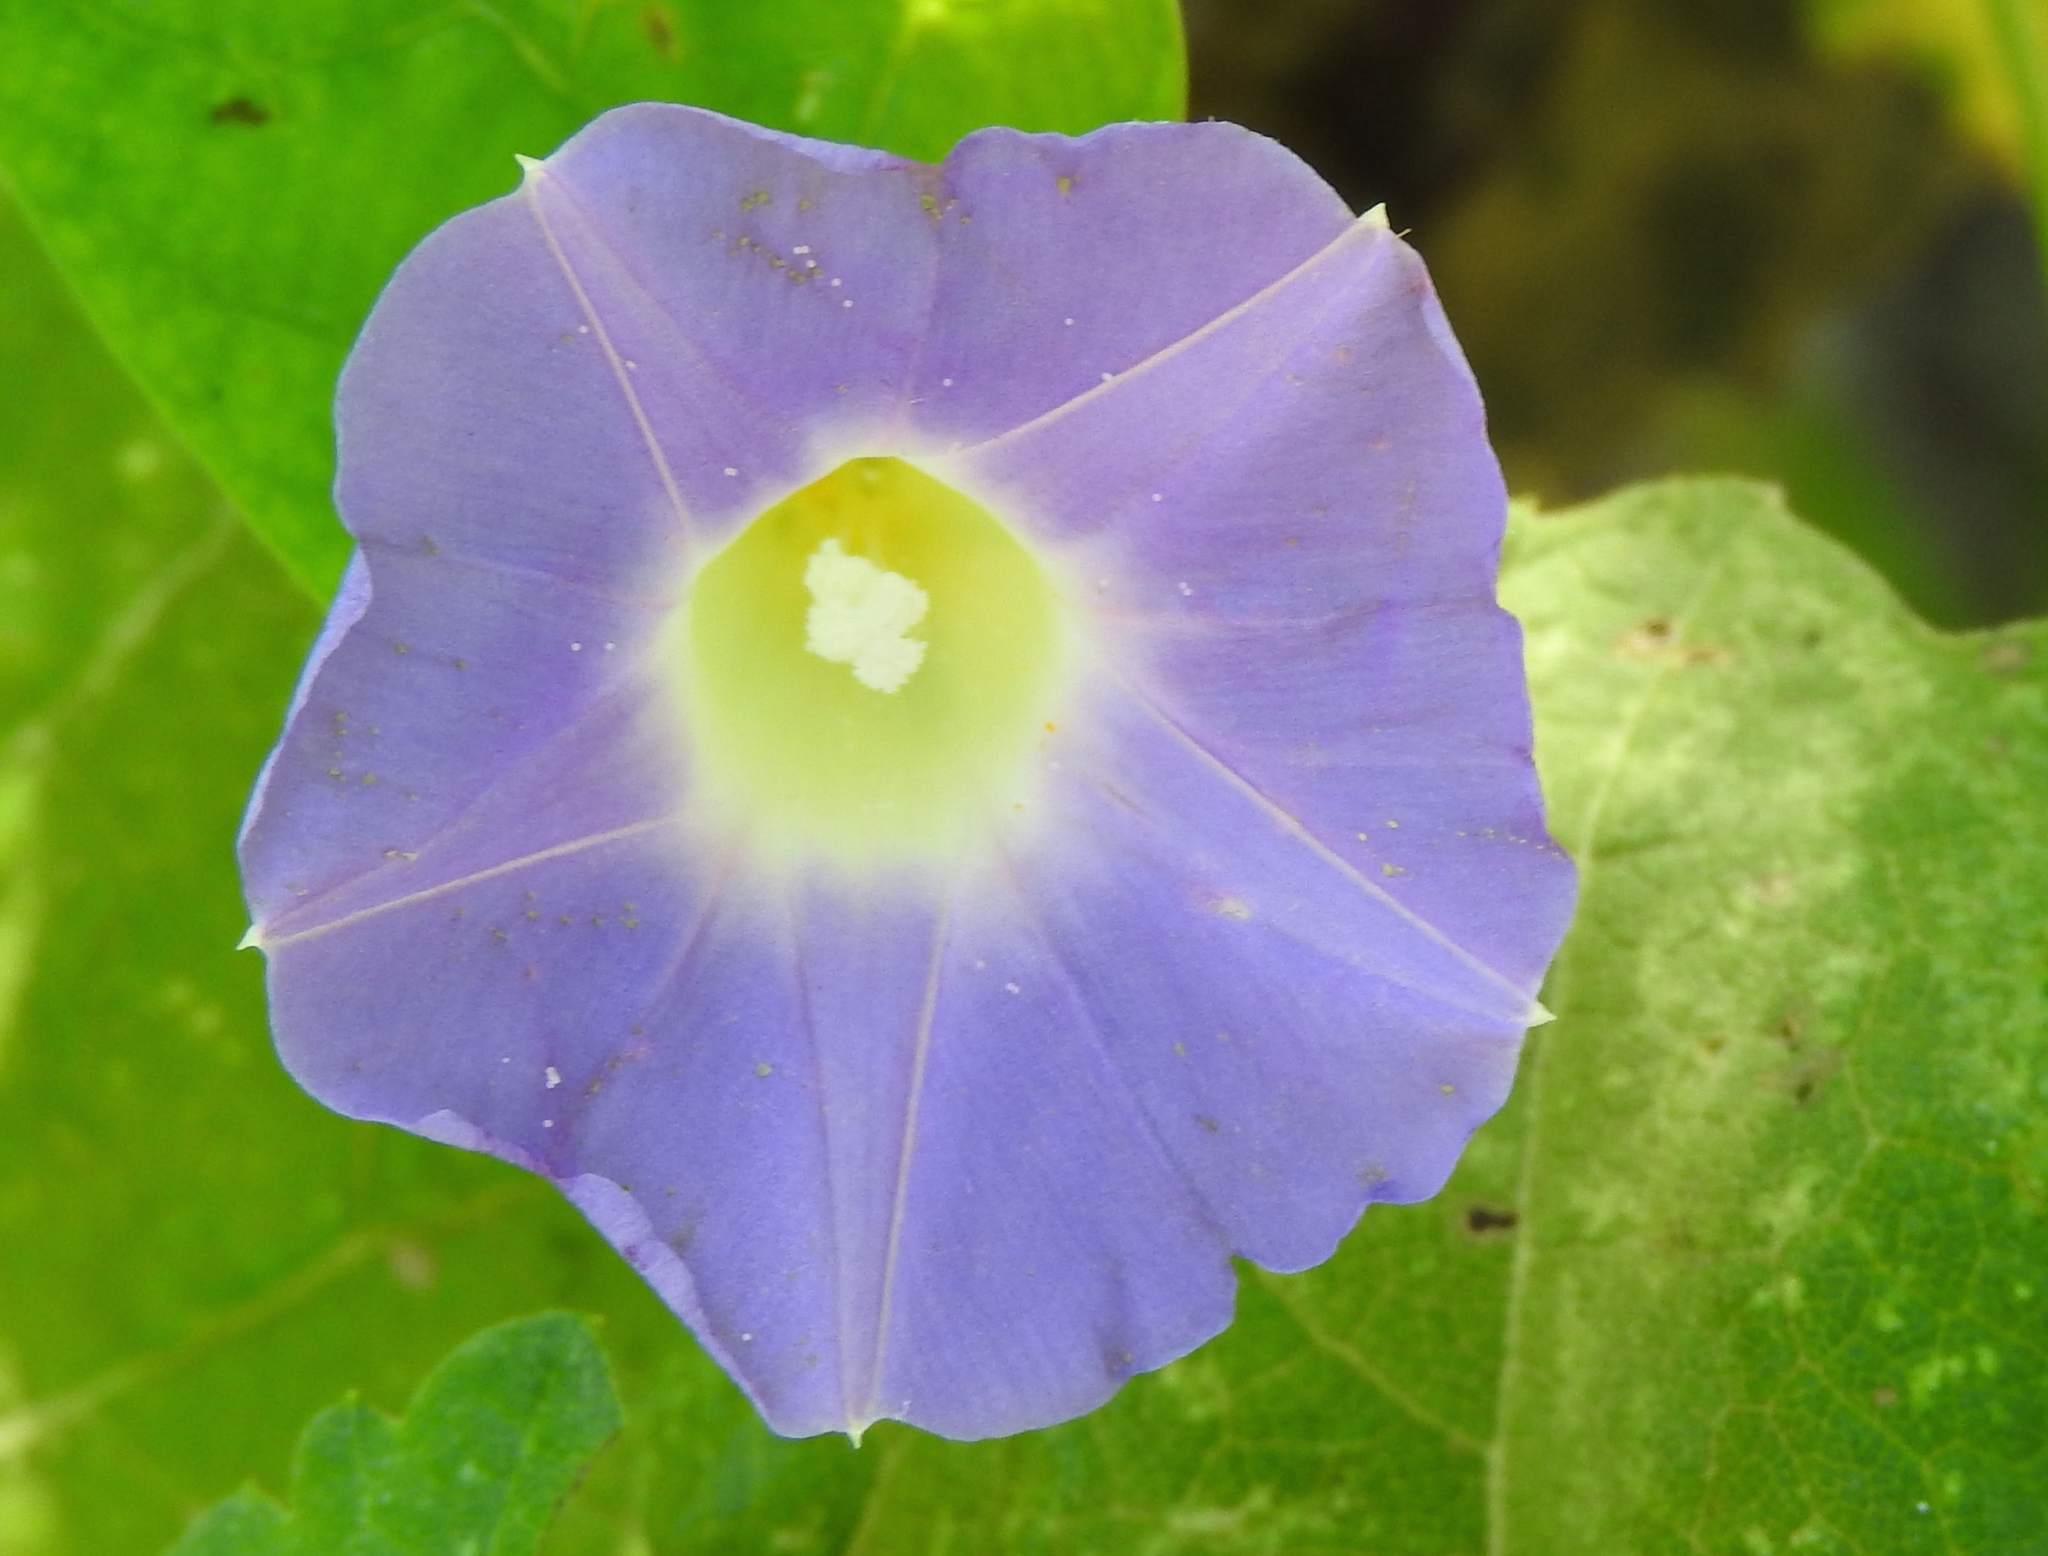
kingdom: Plantae
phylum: Tracheophyta
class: Magnoliopsida
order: Solanales
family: Convolvulaceae
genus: Ipomoea
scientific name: Ipomoea meyeri
